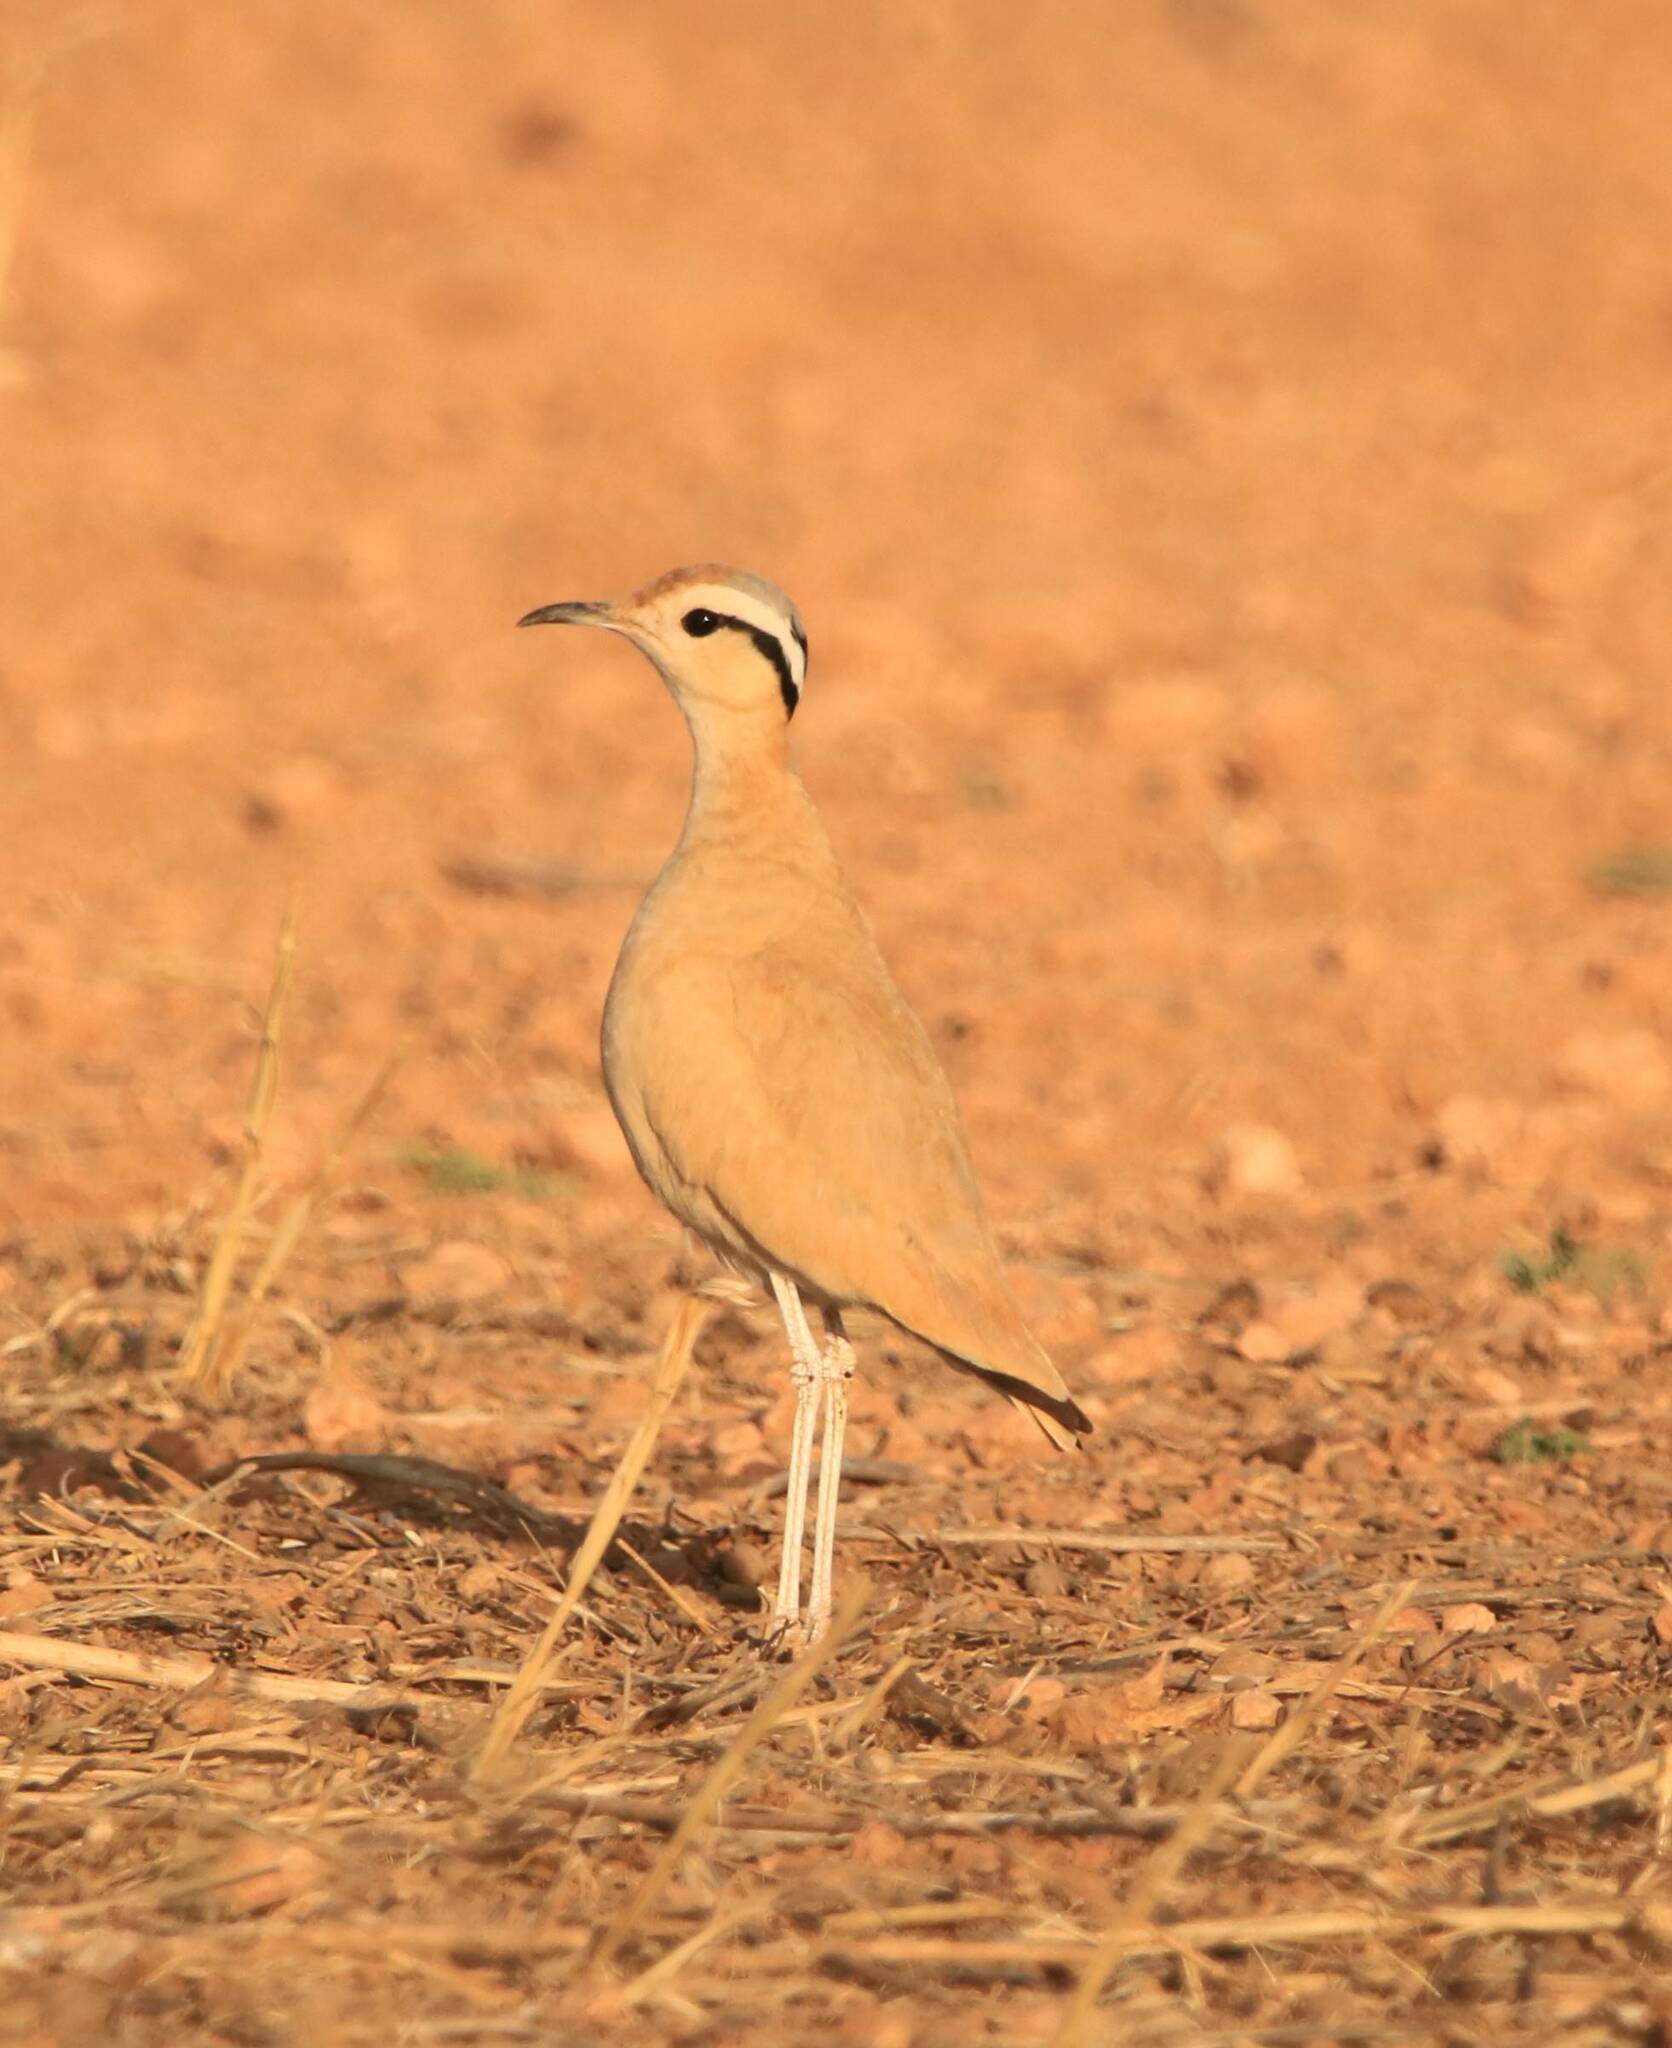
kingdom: Animalia
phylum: Chordata
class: Aves
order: Charadriiformes
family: Glareolidae
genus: Cursorius
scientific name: Cursorius cursor
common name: Cream-colored courser
